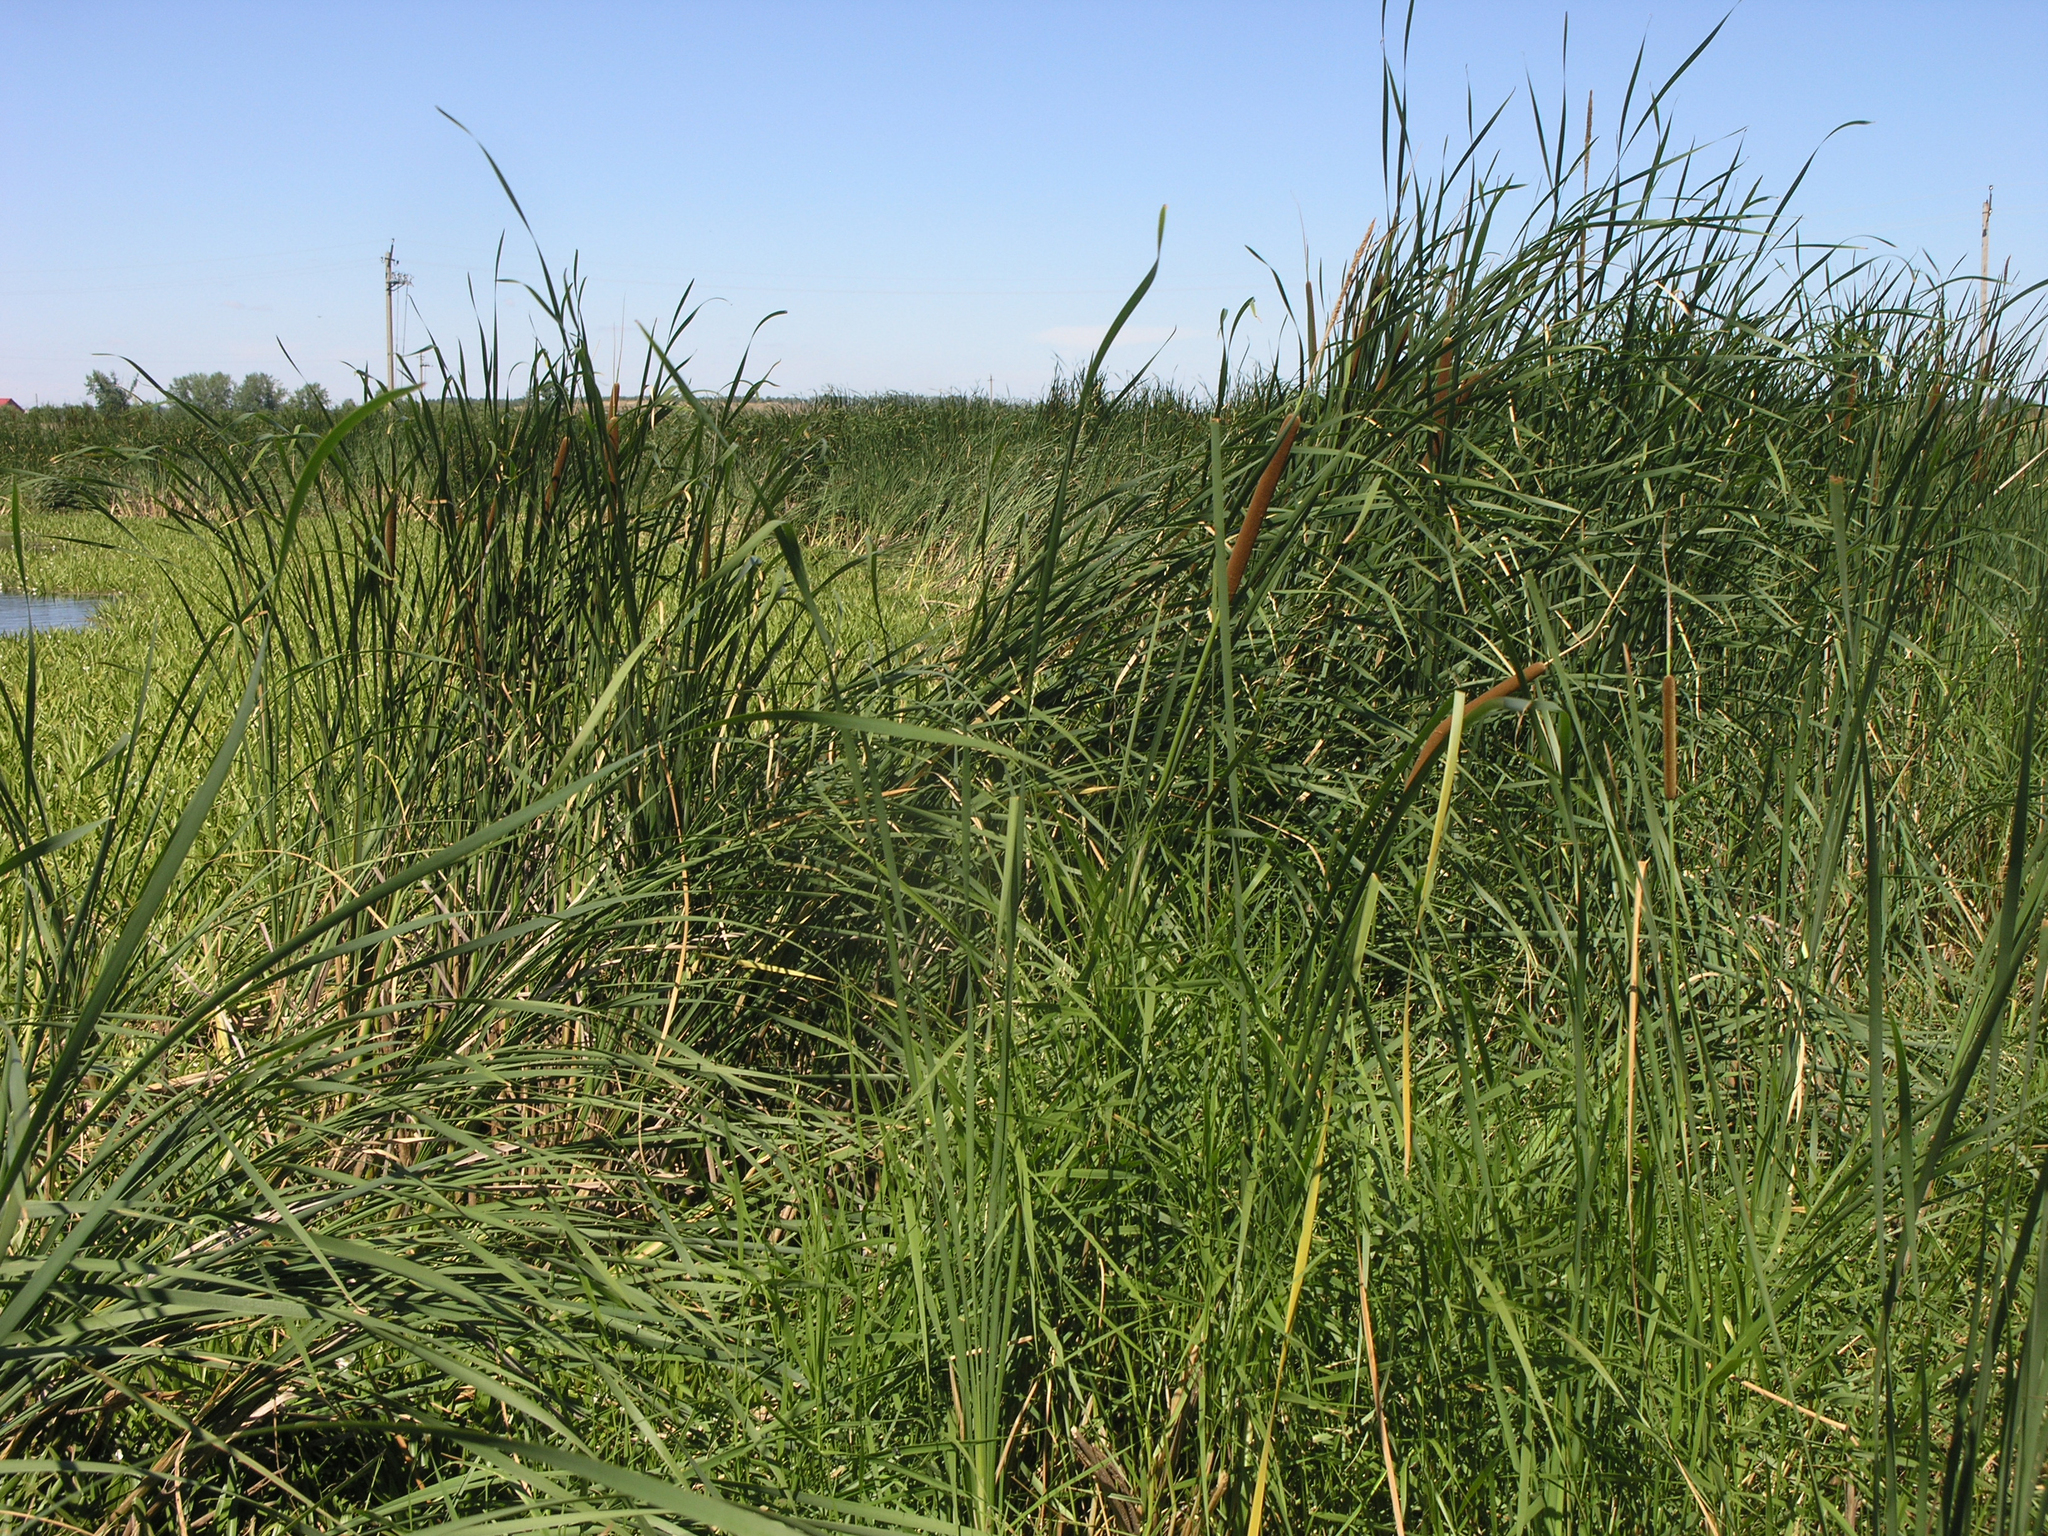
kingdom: Plantae
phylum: Tracheophyta
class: Liliopsida
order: Poales
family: Typhaceae
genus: Typha
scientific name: Typha angustifolia
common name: Lesser bulrush
